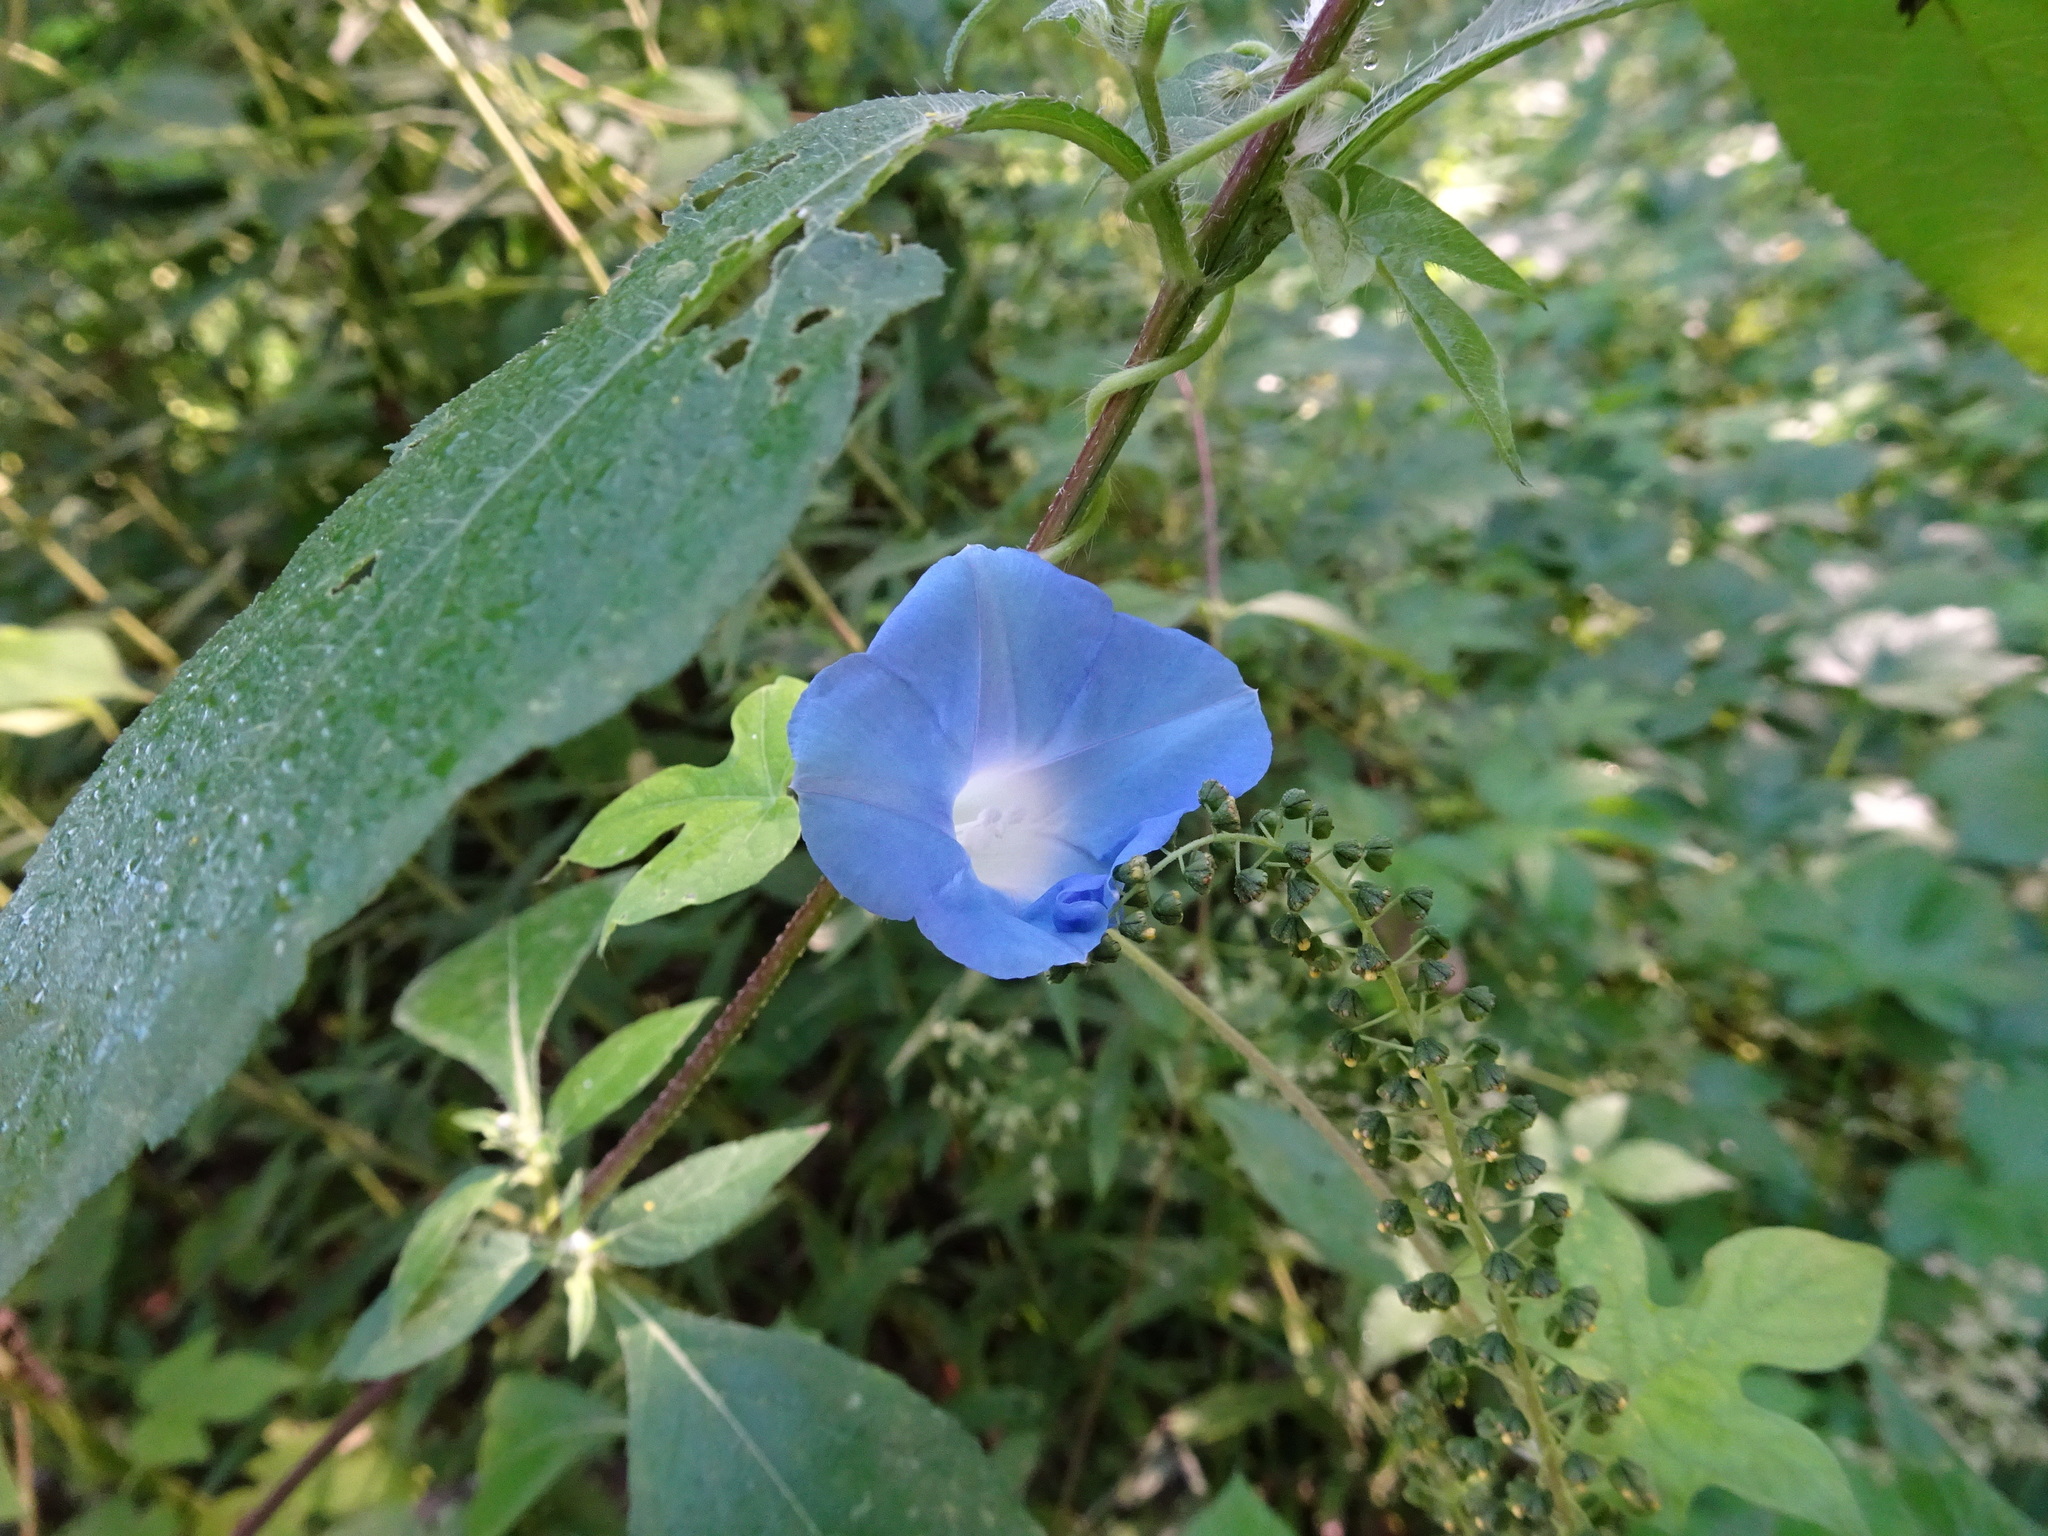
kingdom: Plantae
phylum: Tracheophyta
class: Magnoliopsida
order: Solanales
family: Convolvulaceae
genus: Ipomoea
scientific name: Ipomoea hederacea
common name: Ivy-leaved morning-glory
